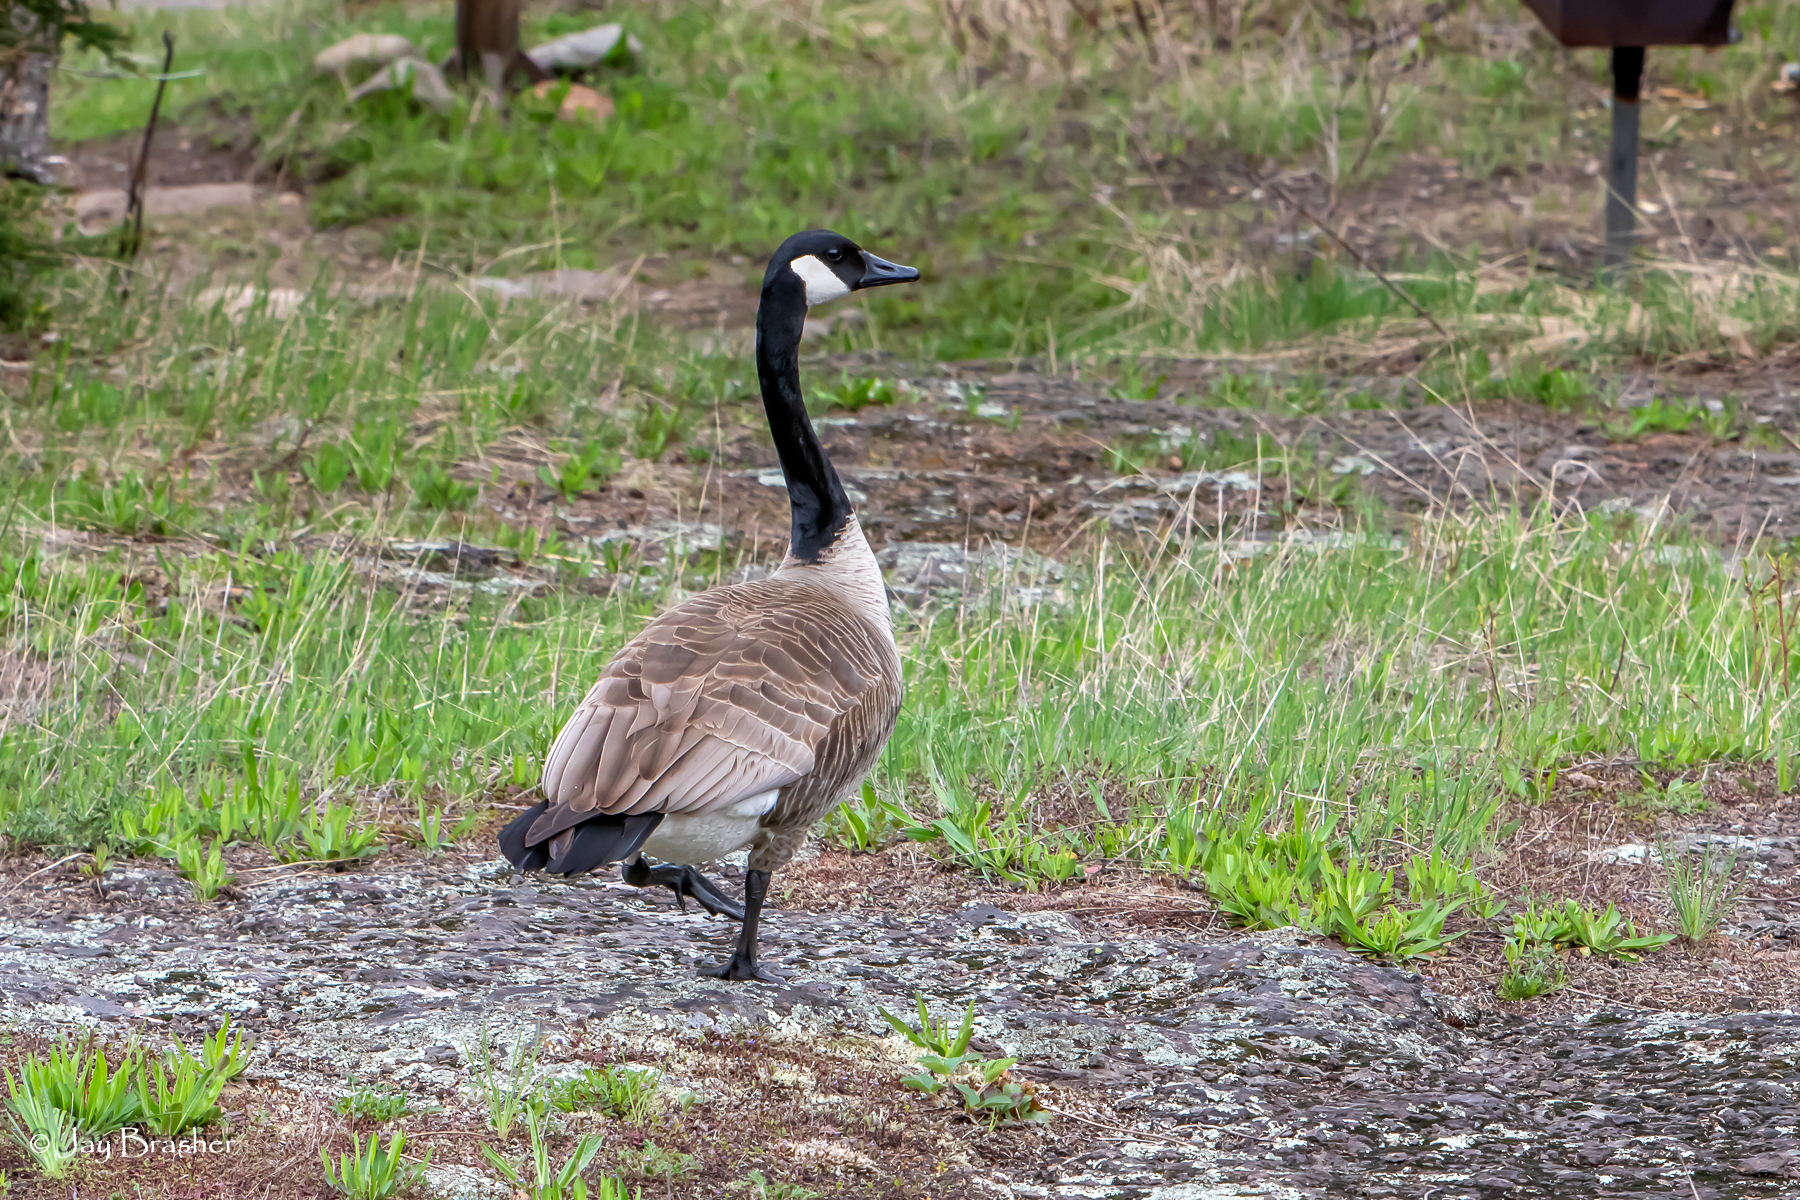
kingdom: Animalia
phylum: Chordata
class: Aves
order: Anseriformes
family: Anatidae
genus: Branta
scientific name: Branta canadensis
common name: Canada goose
